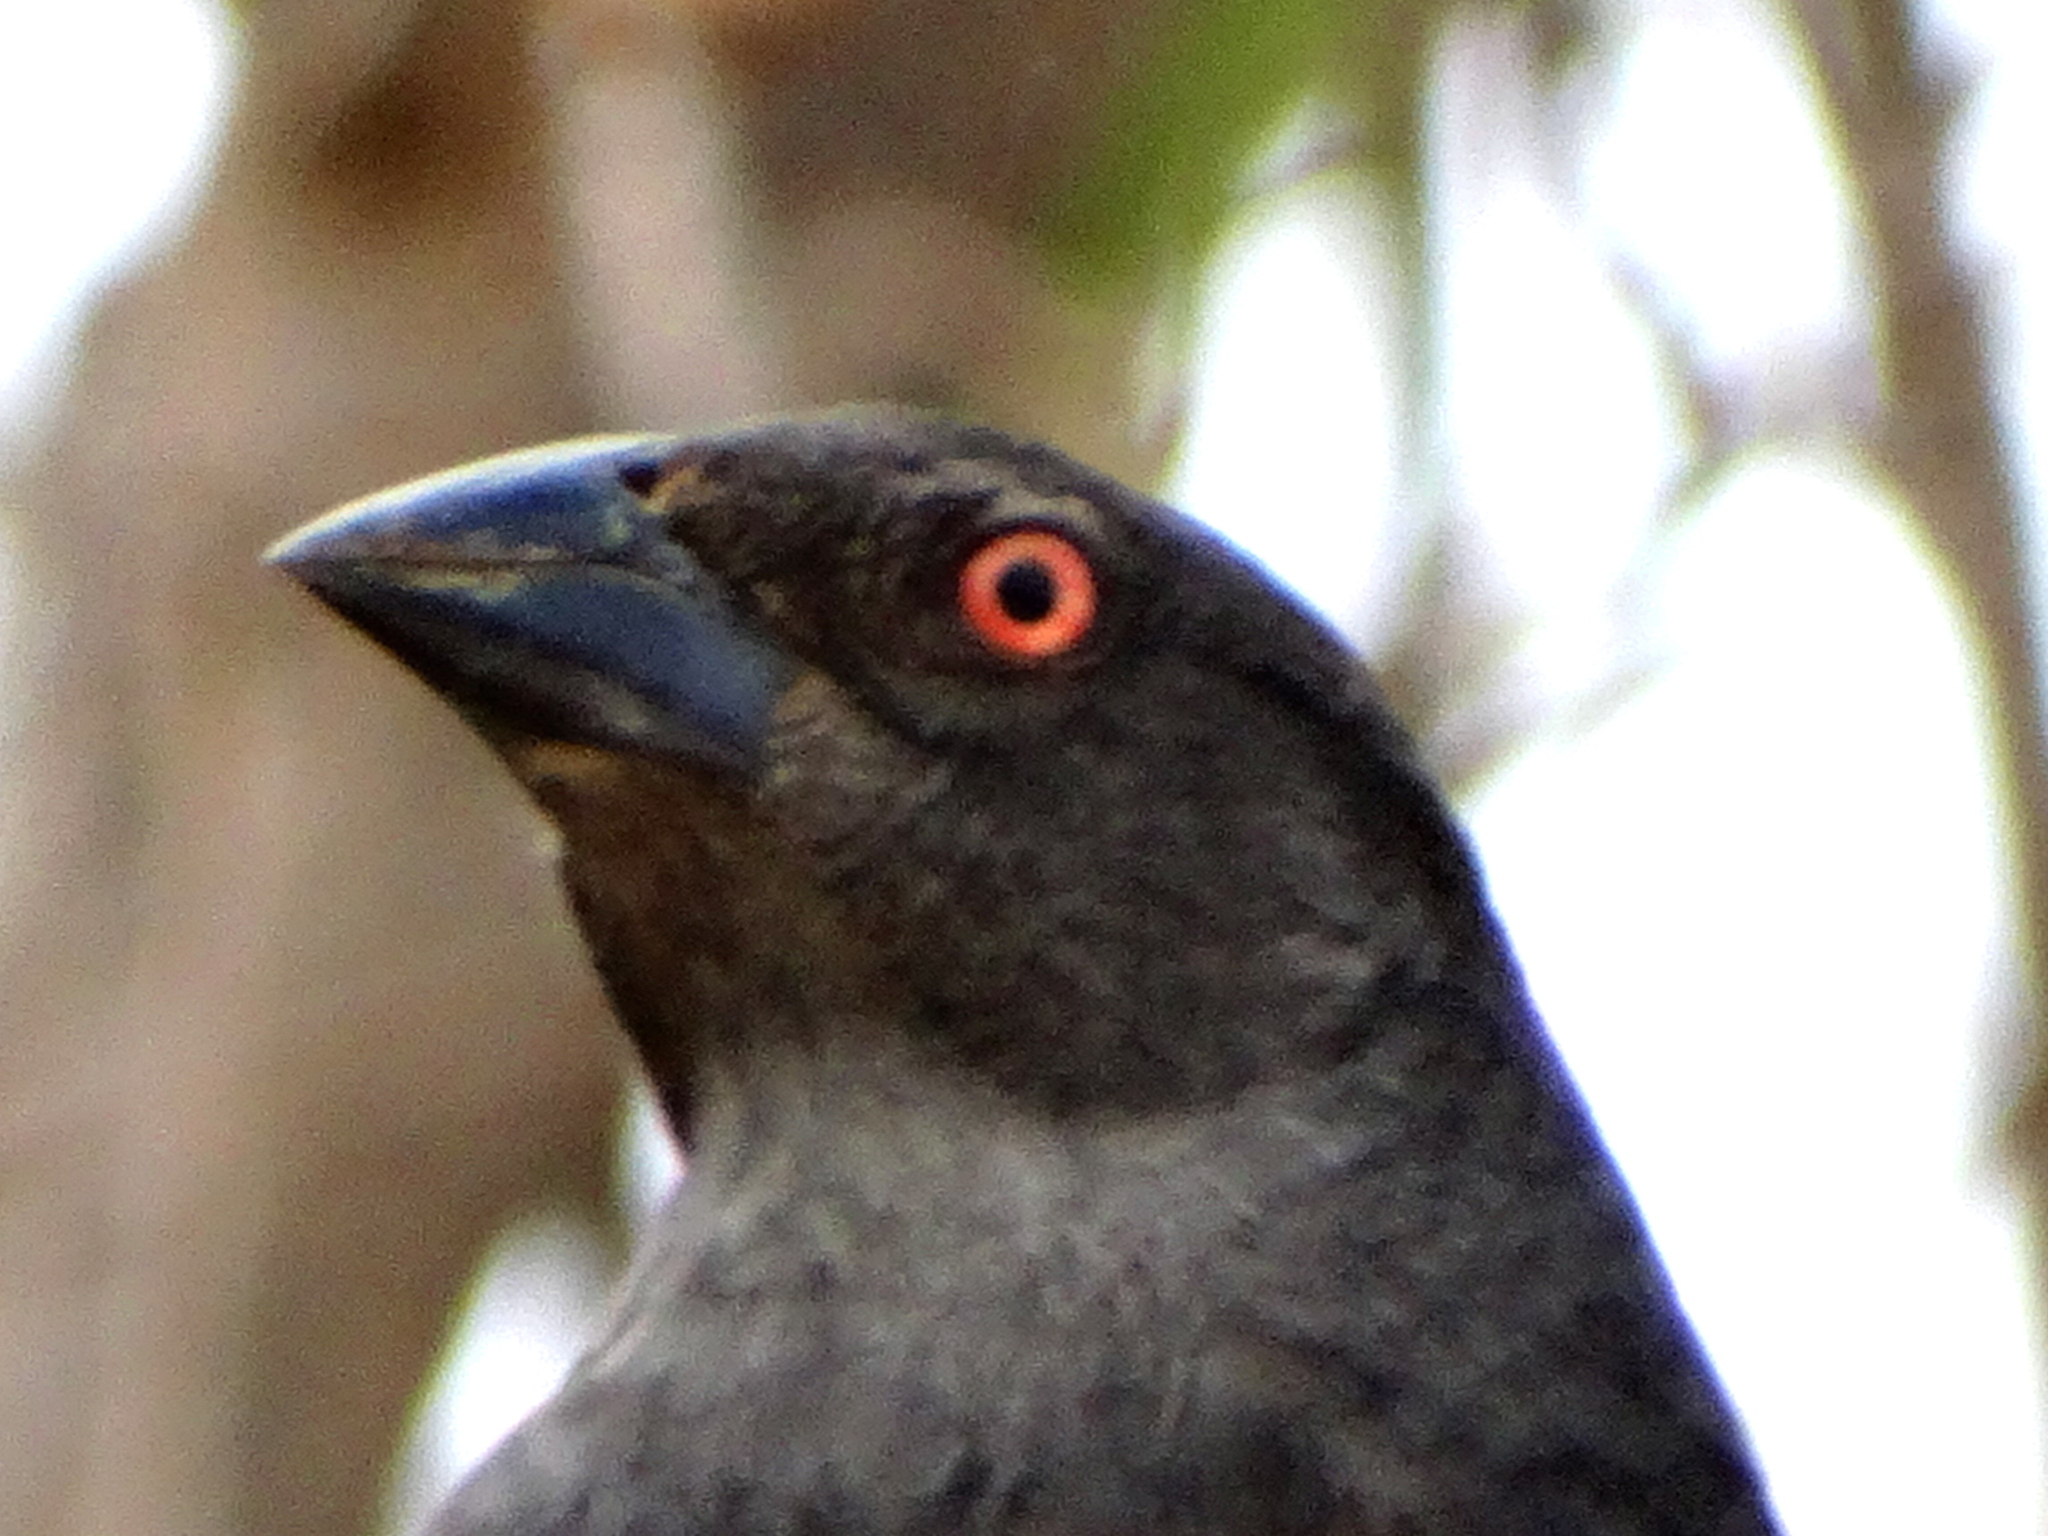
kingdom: Animalia
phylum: Chordata
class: Aves
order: Passeriformes
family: Icteridae
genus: Molothrus
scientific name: Molothrus aeneus
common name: Bronzed cowbird
